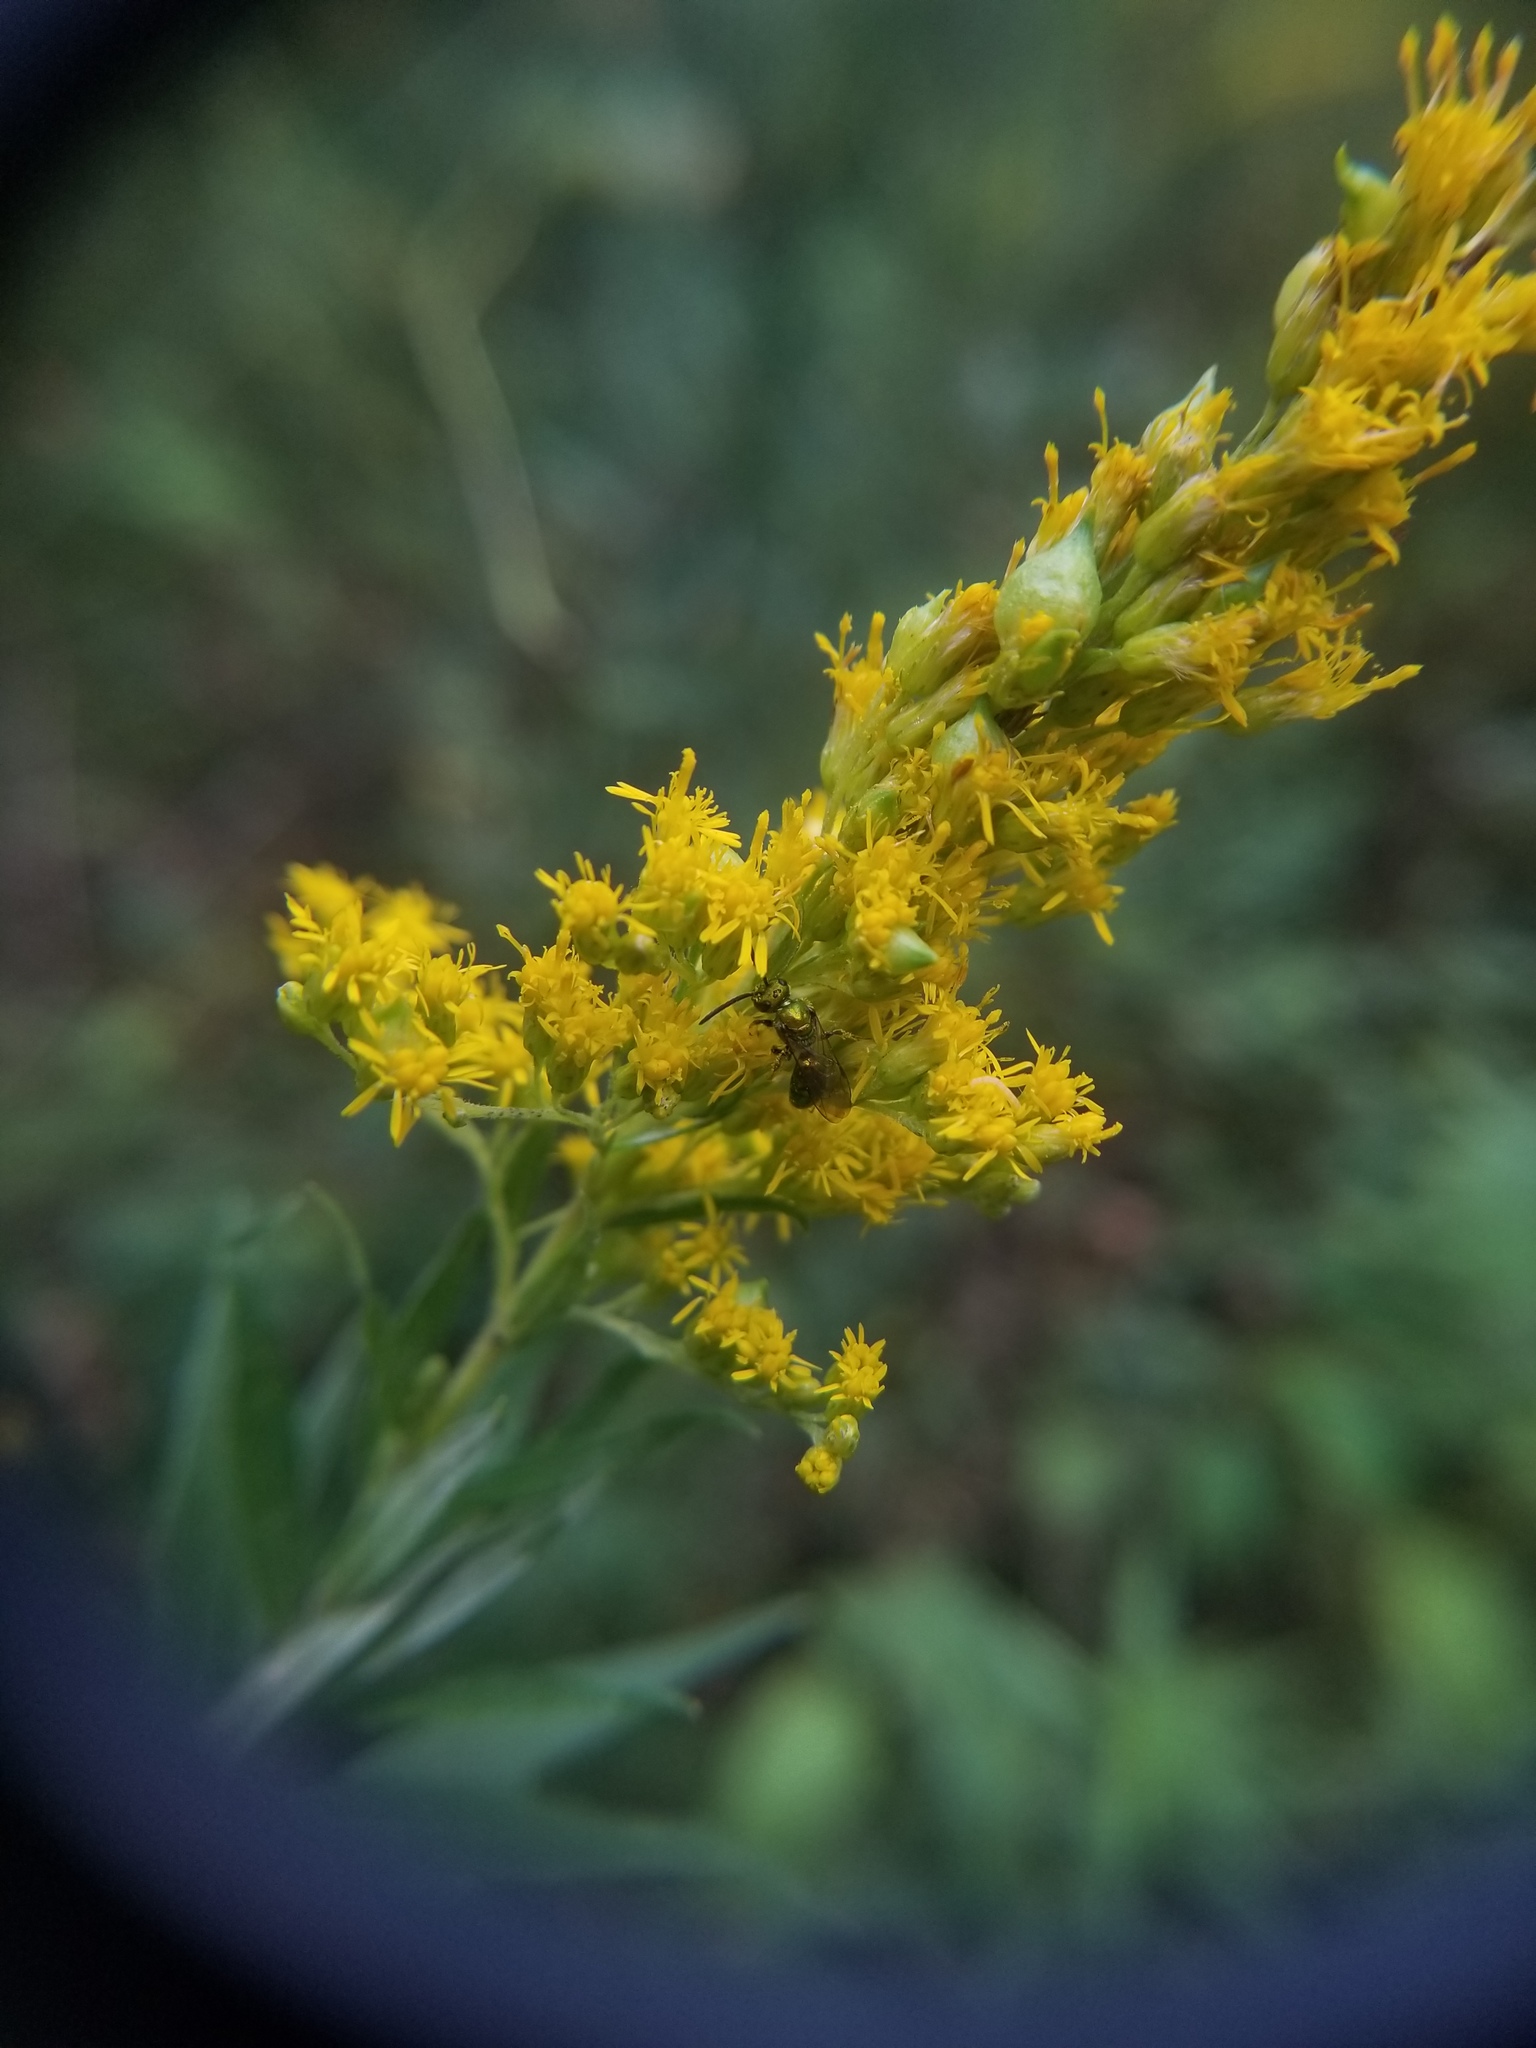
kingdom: Animalia
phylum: Arthropoda
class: Insecta
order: Diptera
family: Cecidomyiidae
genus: Schizomyia
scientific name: Schizomyia racemicola
